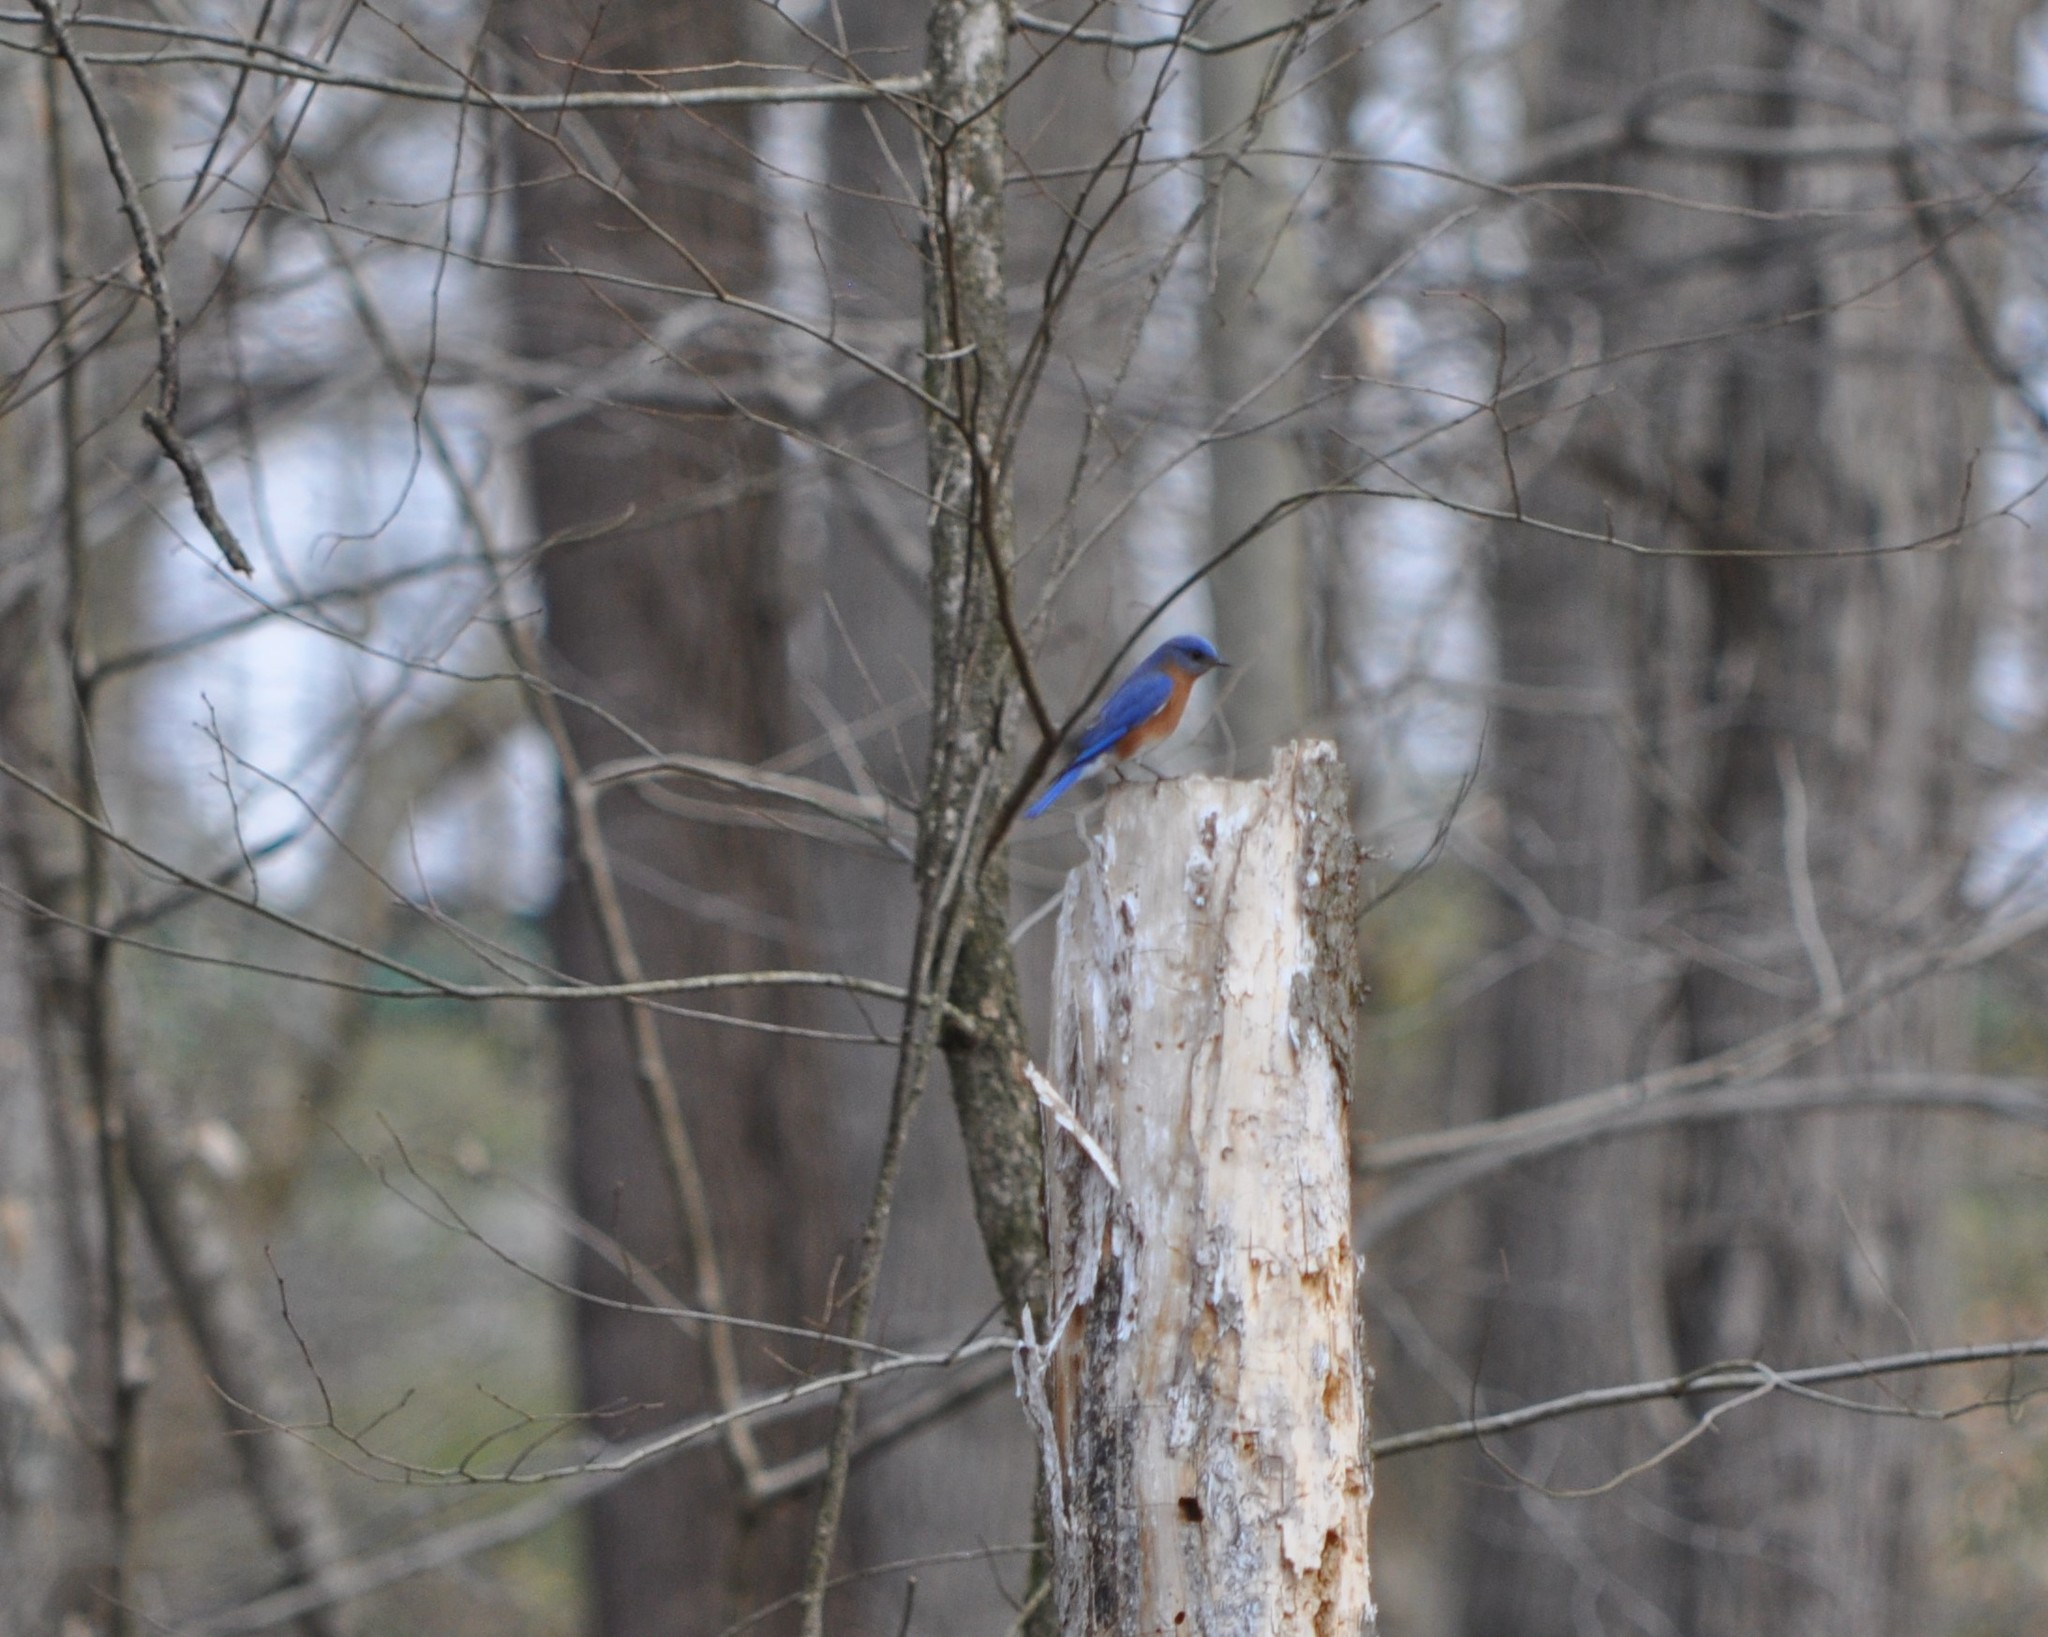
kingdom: Animalia
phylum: Chordata
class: Aves
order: Passeriformes
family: Turdidae
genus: Sialia
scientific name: Sialia sialis
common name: Eastern bluebird
